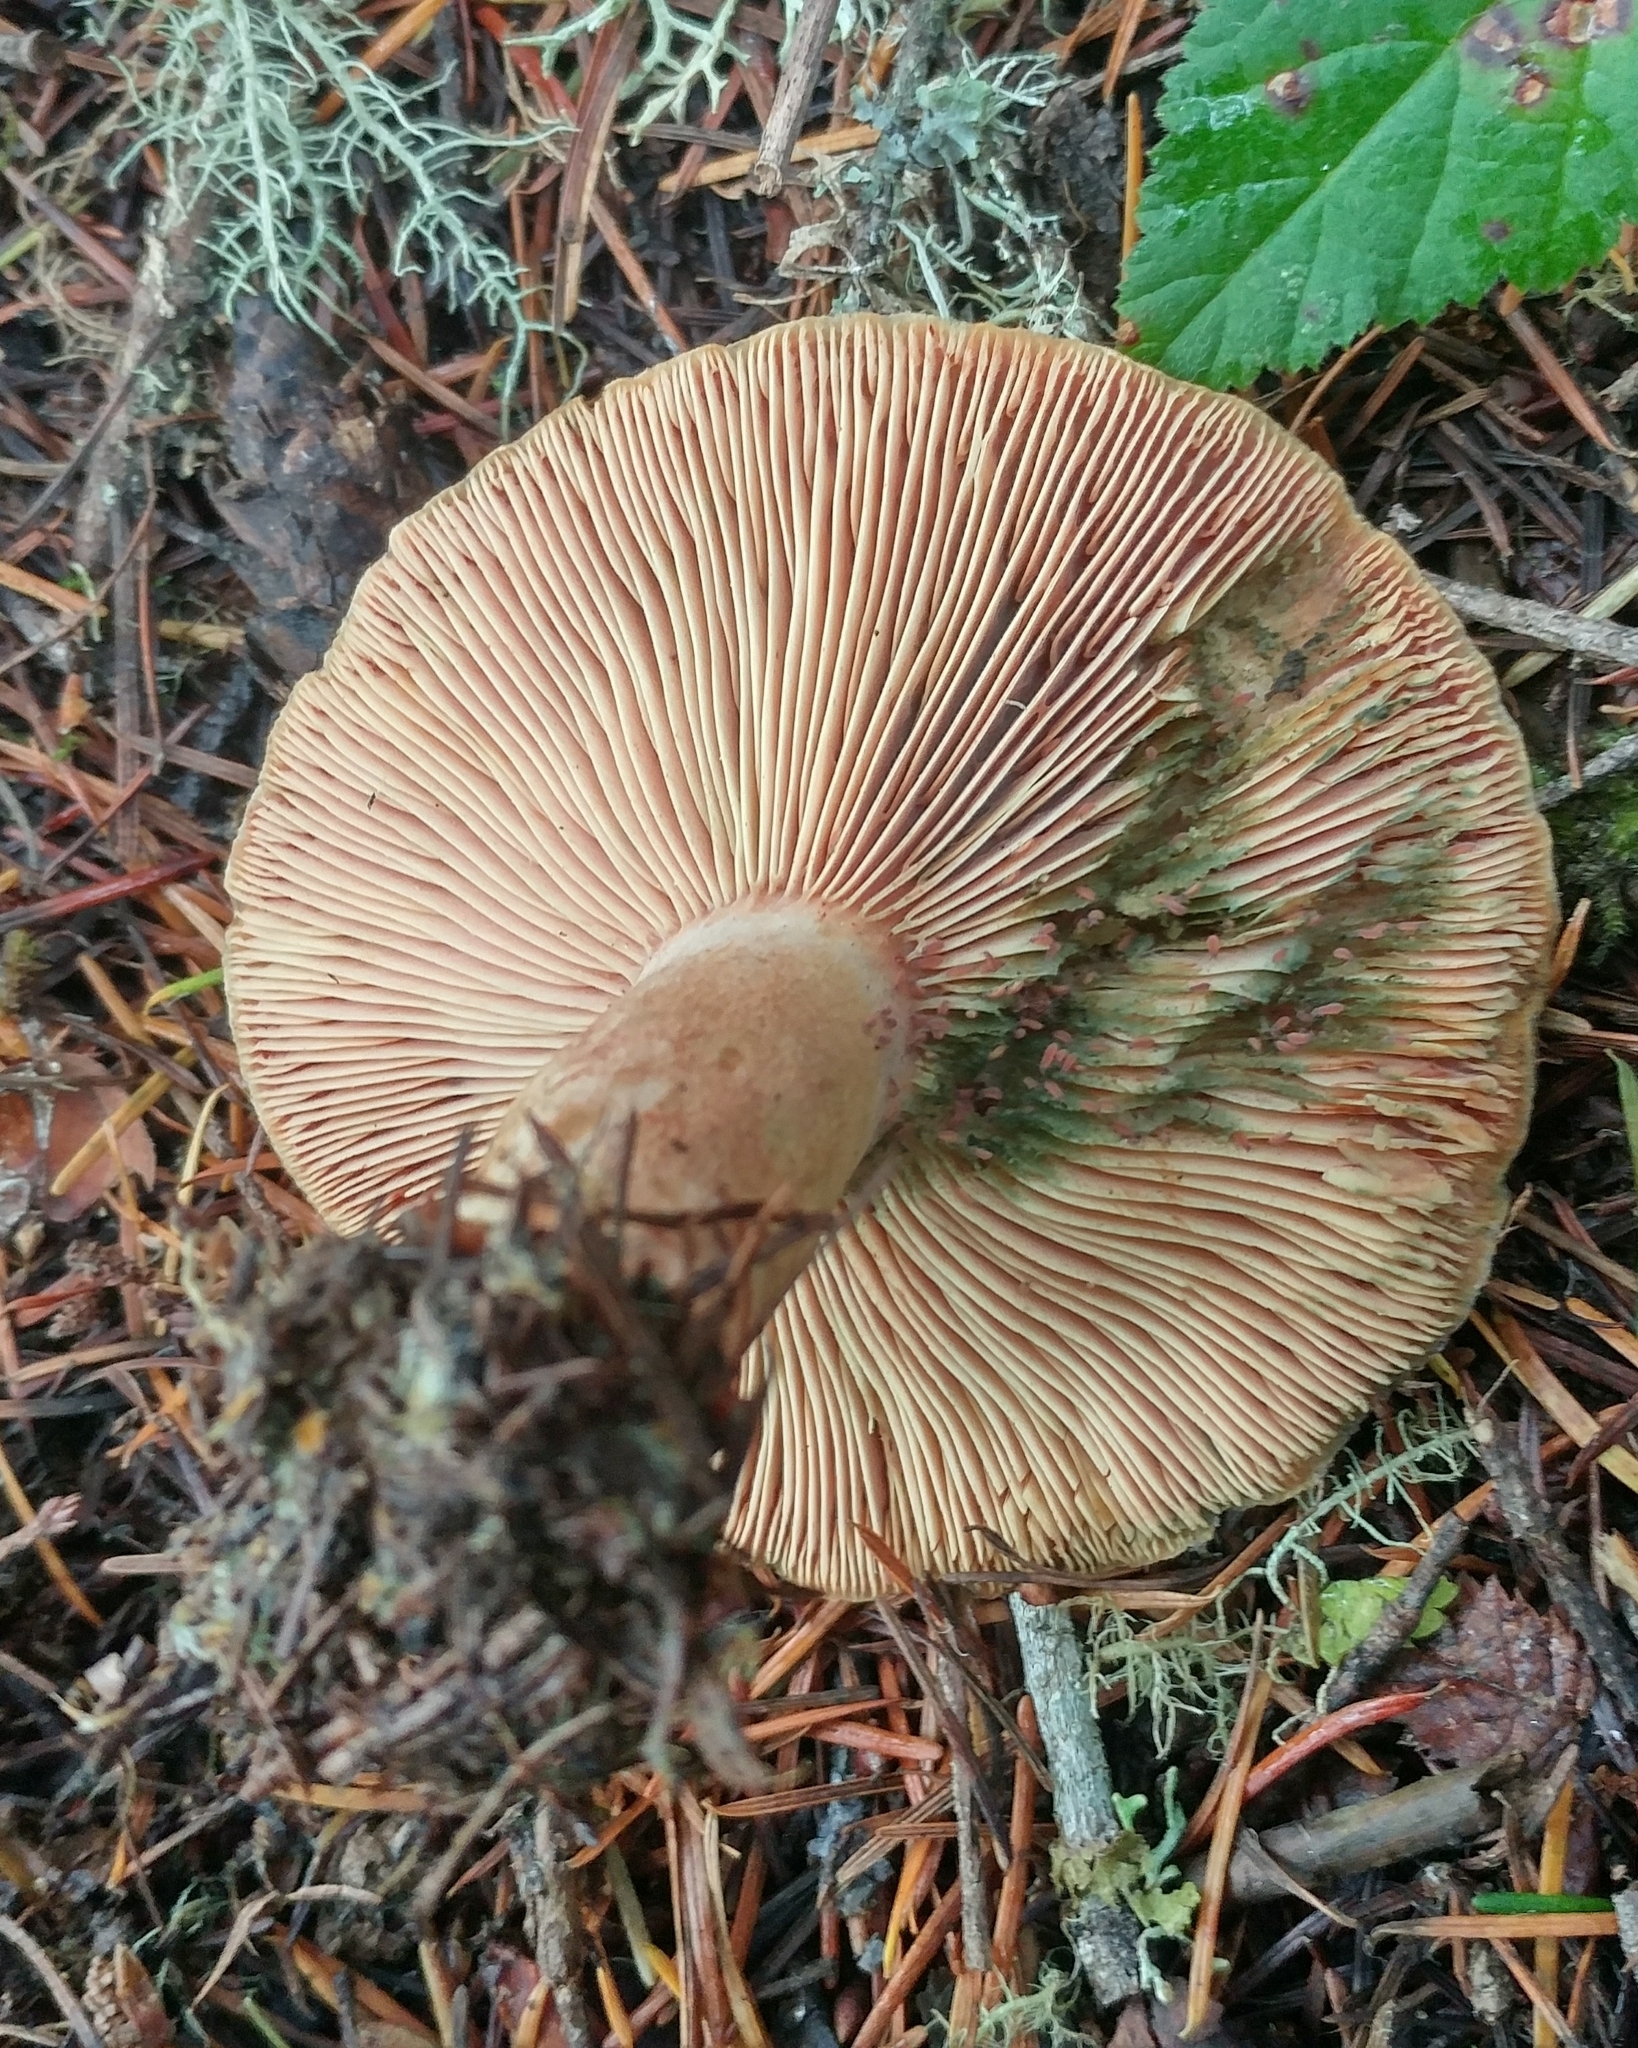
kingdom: Fungi
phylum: Basidiomycota
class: Agaricomycetes
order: Russulales
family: Russulaceae
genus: Lactarius
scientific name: Lactarius rubrilacteus
